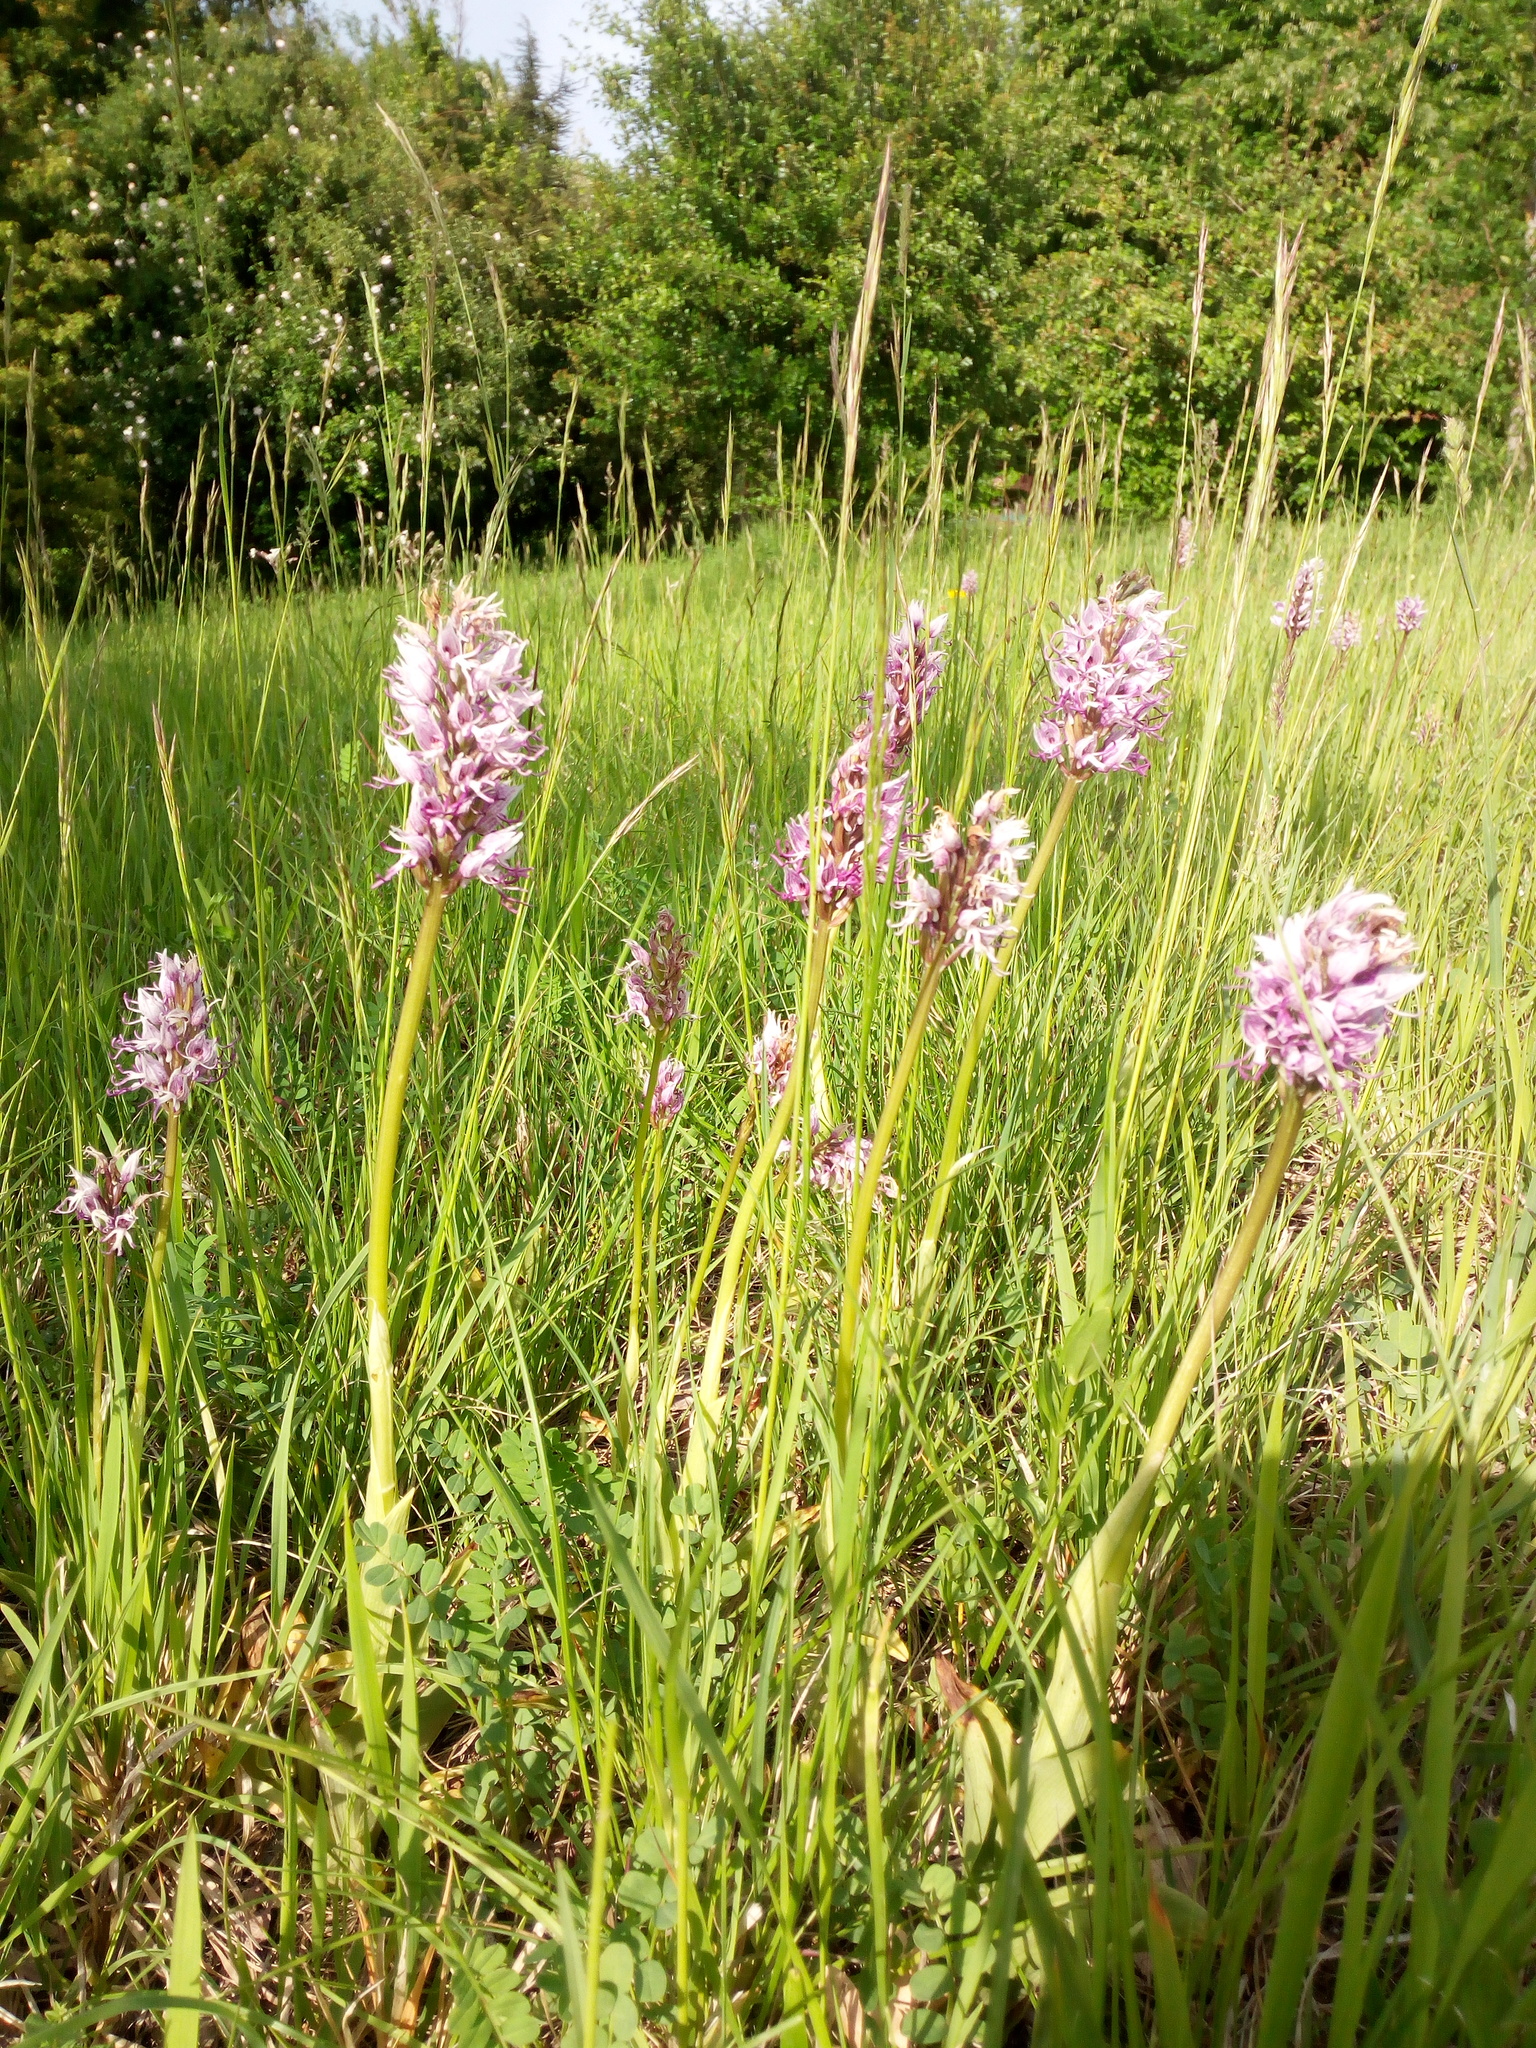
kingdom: Plantae
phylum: Tracheophyta
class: Liliopsida
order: Asparagales
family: Orchidaceae
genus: Orchis
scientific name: Orchis simia
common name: Monkey orchid
